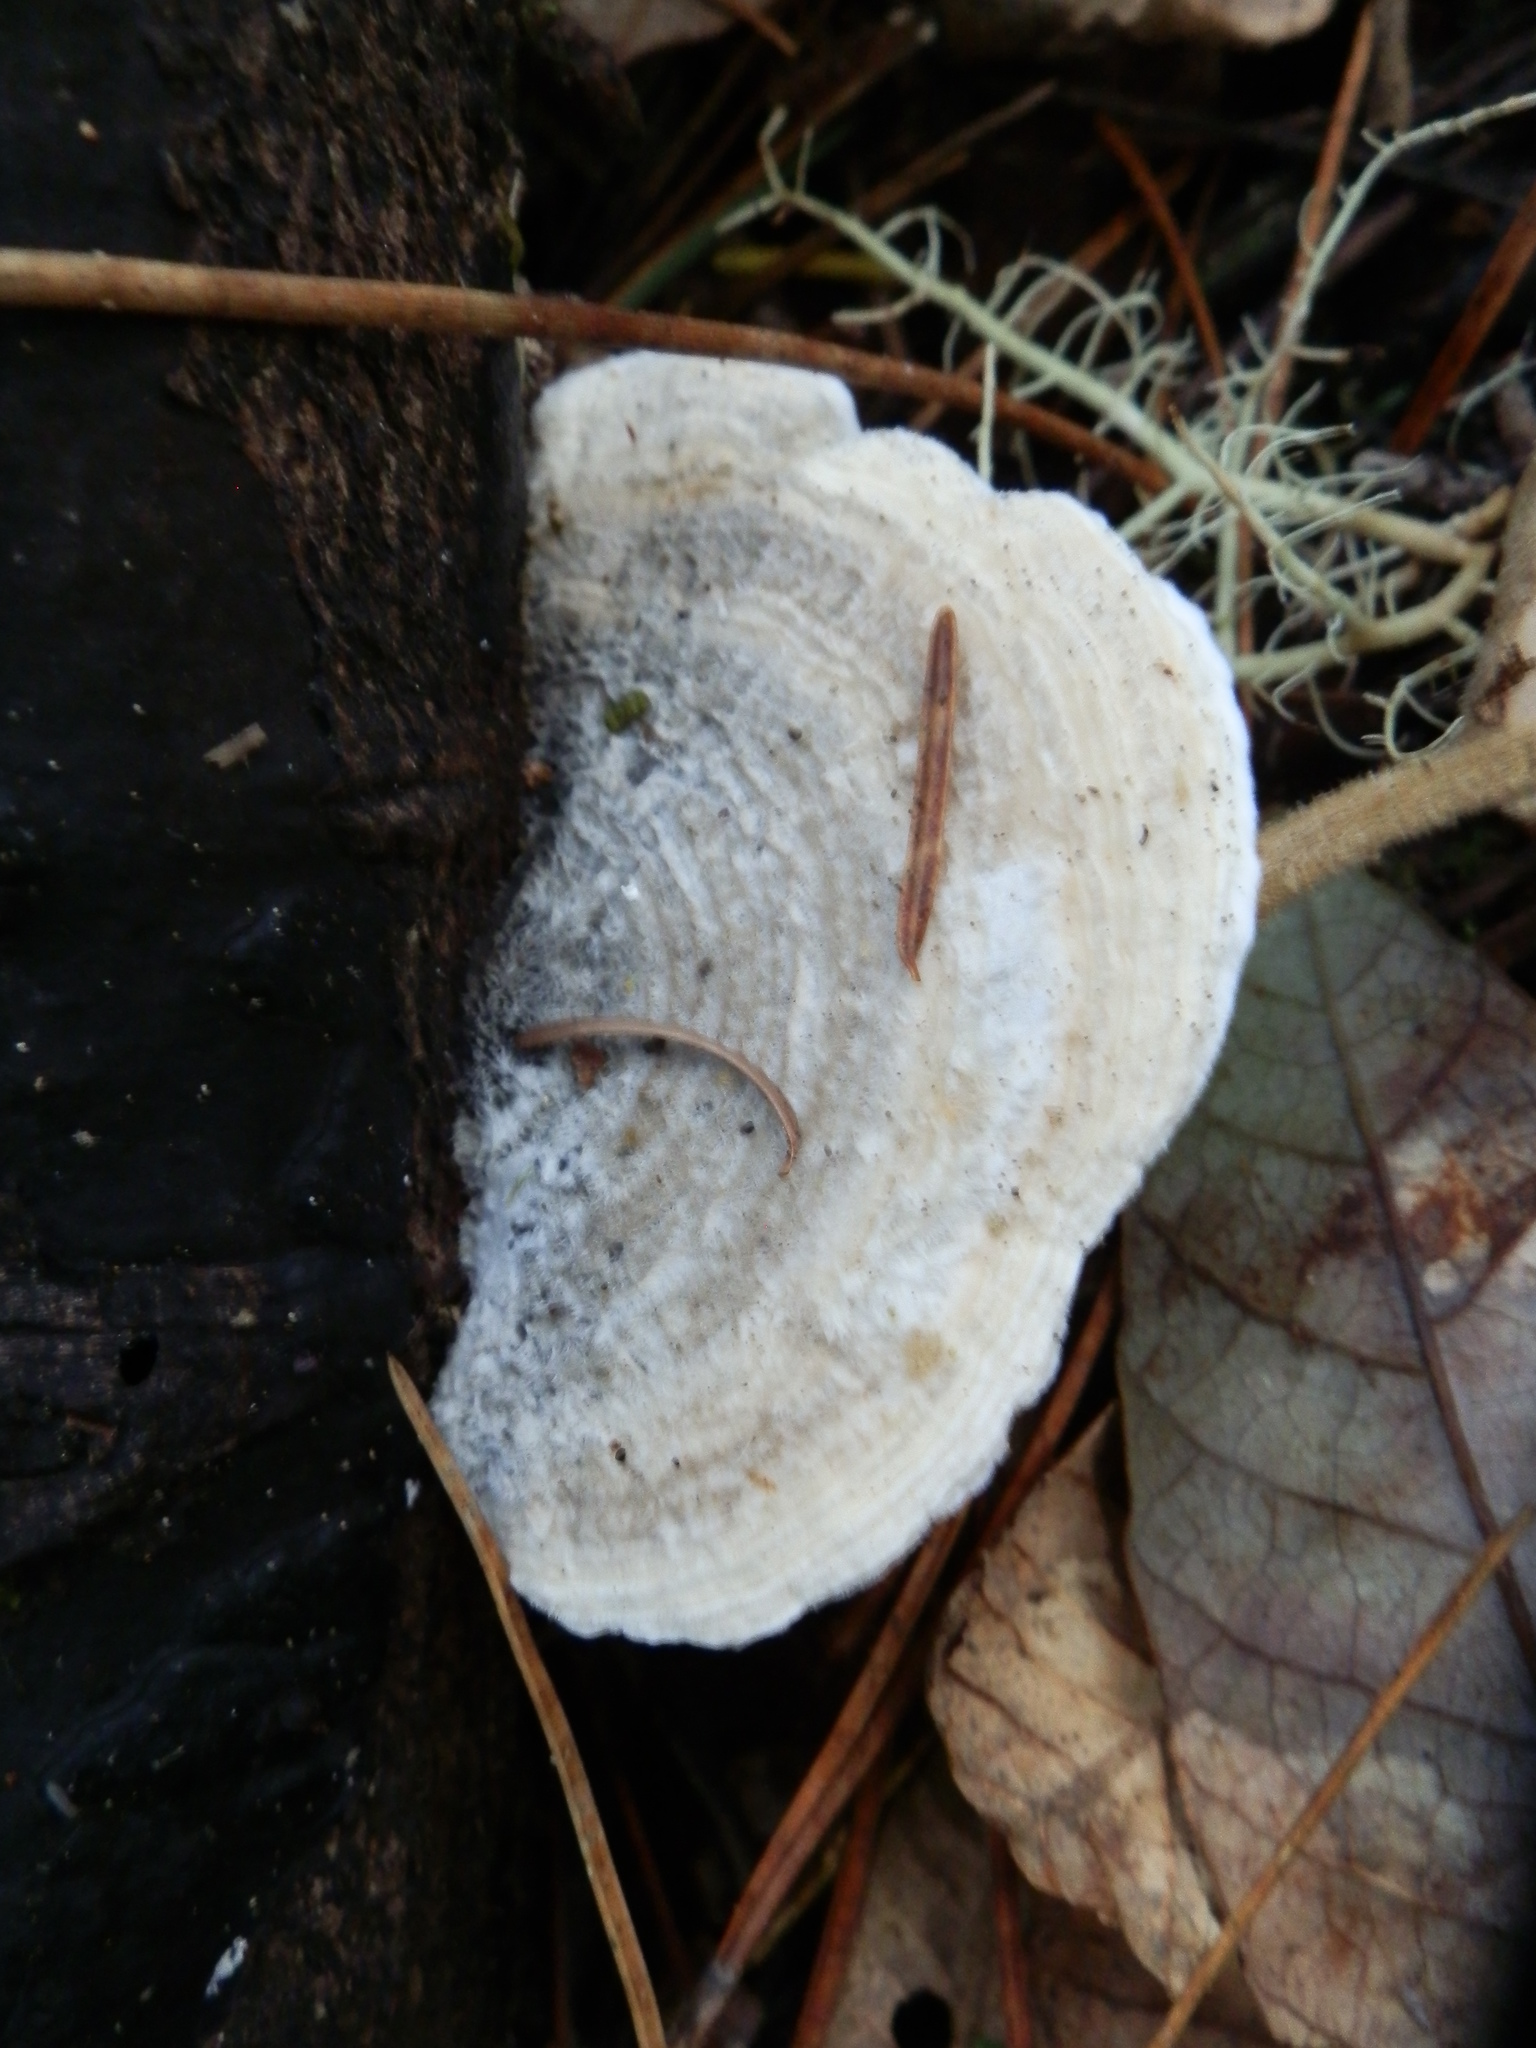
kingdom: Fungi
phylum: Basidiomycota
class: Agaricomycetes
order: Polyporales
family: Polyporaceae
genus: Lenzites
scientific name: Lenzites betulinus
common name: Birch mazegill
